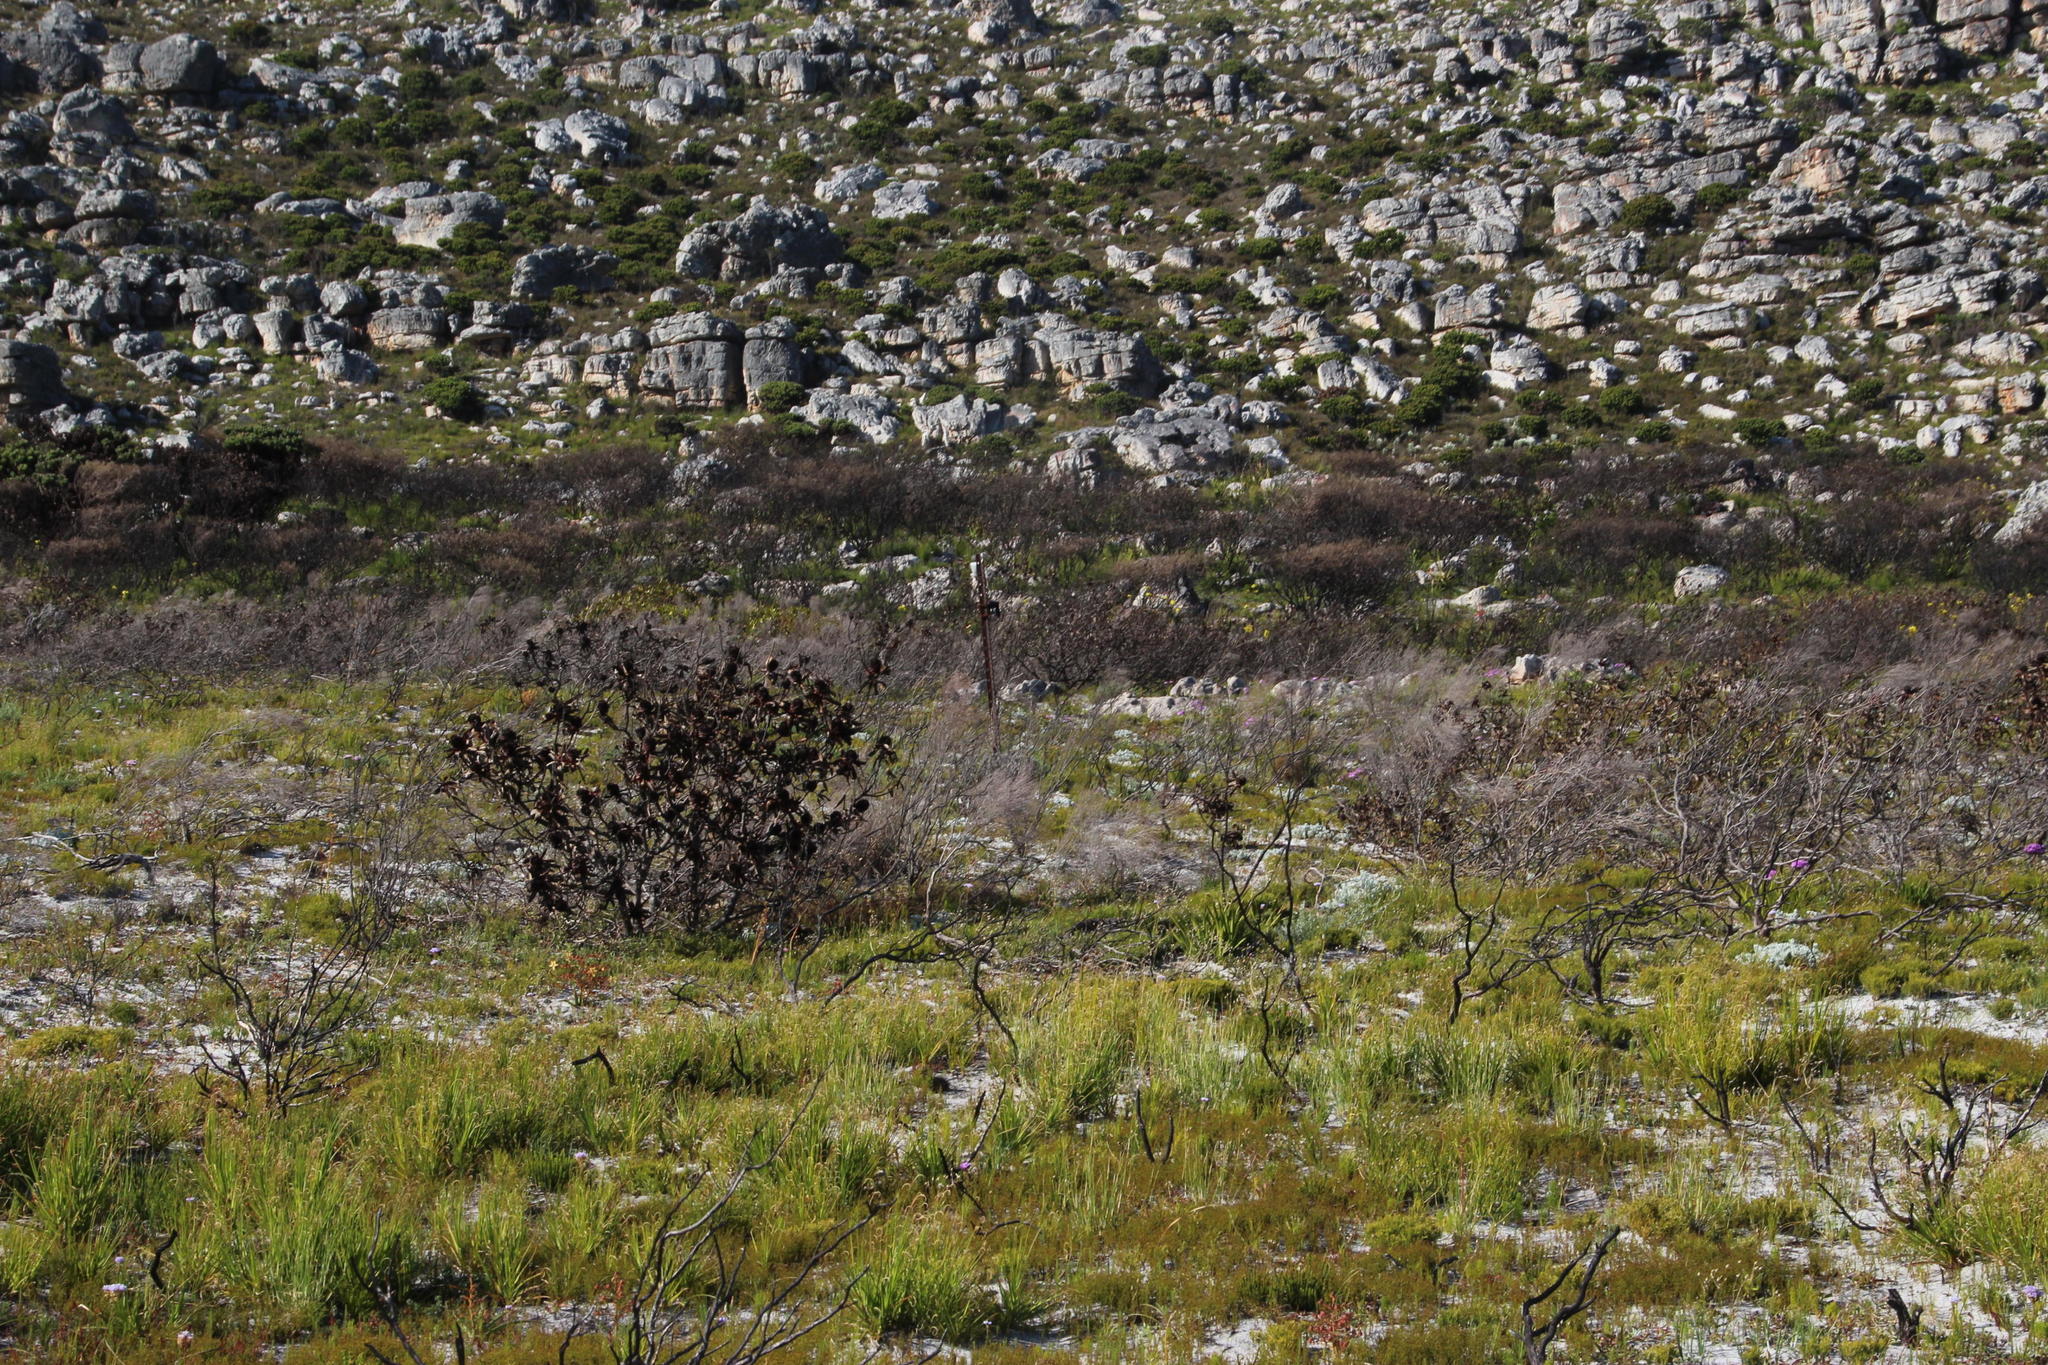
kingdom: Plantae
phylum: Tracheophyta
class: Magnoliopsida
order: Proteales
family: Proteaceae
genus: Leucadendron
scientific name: Leucadendron laureolum
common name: Golden sunshinebush
